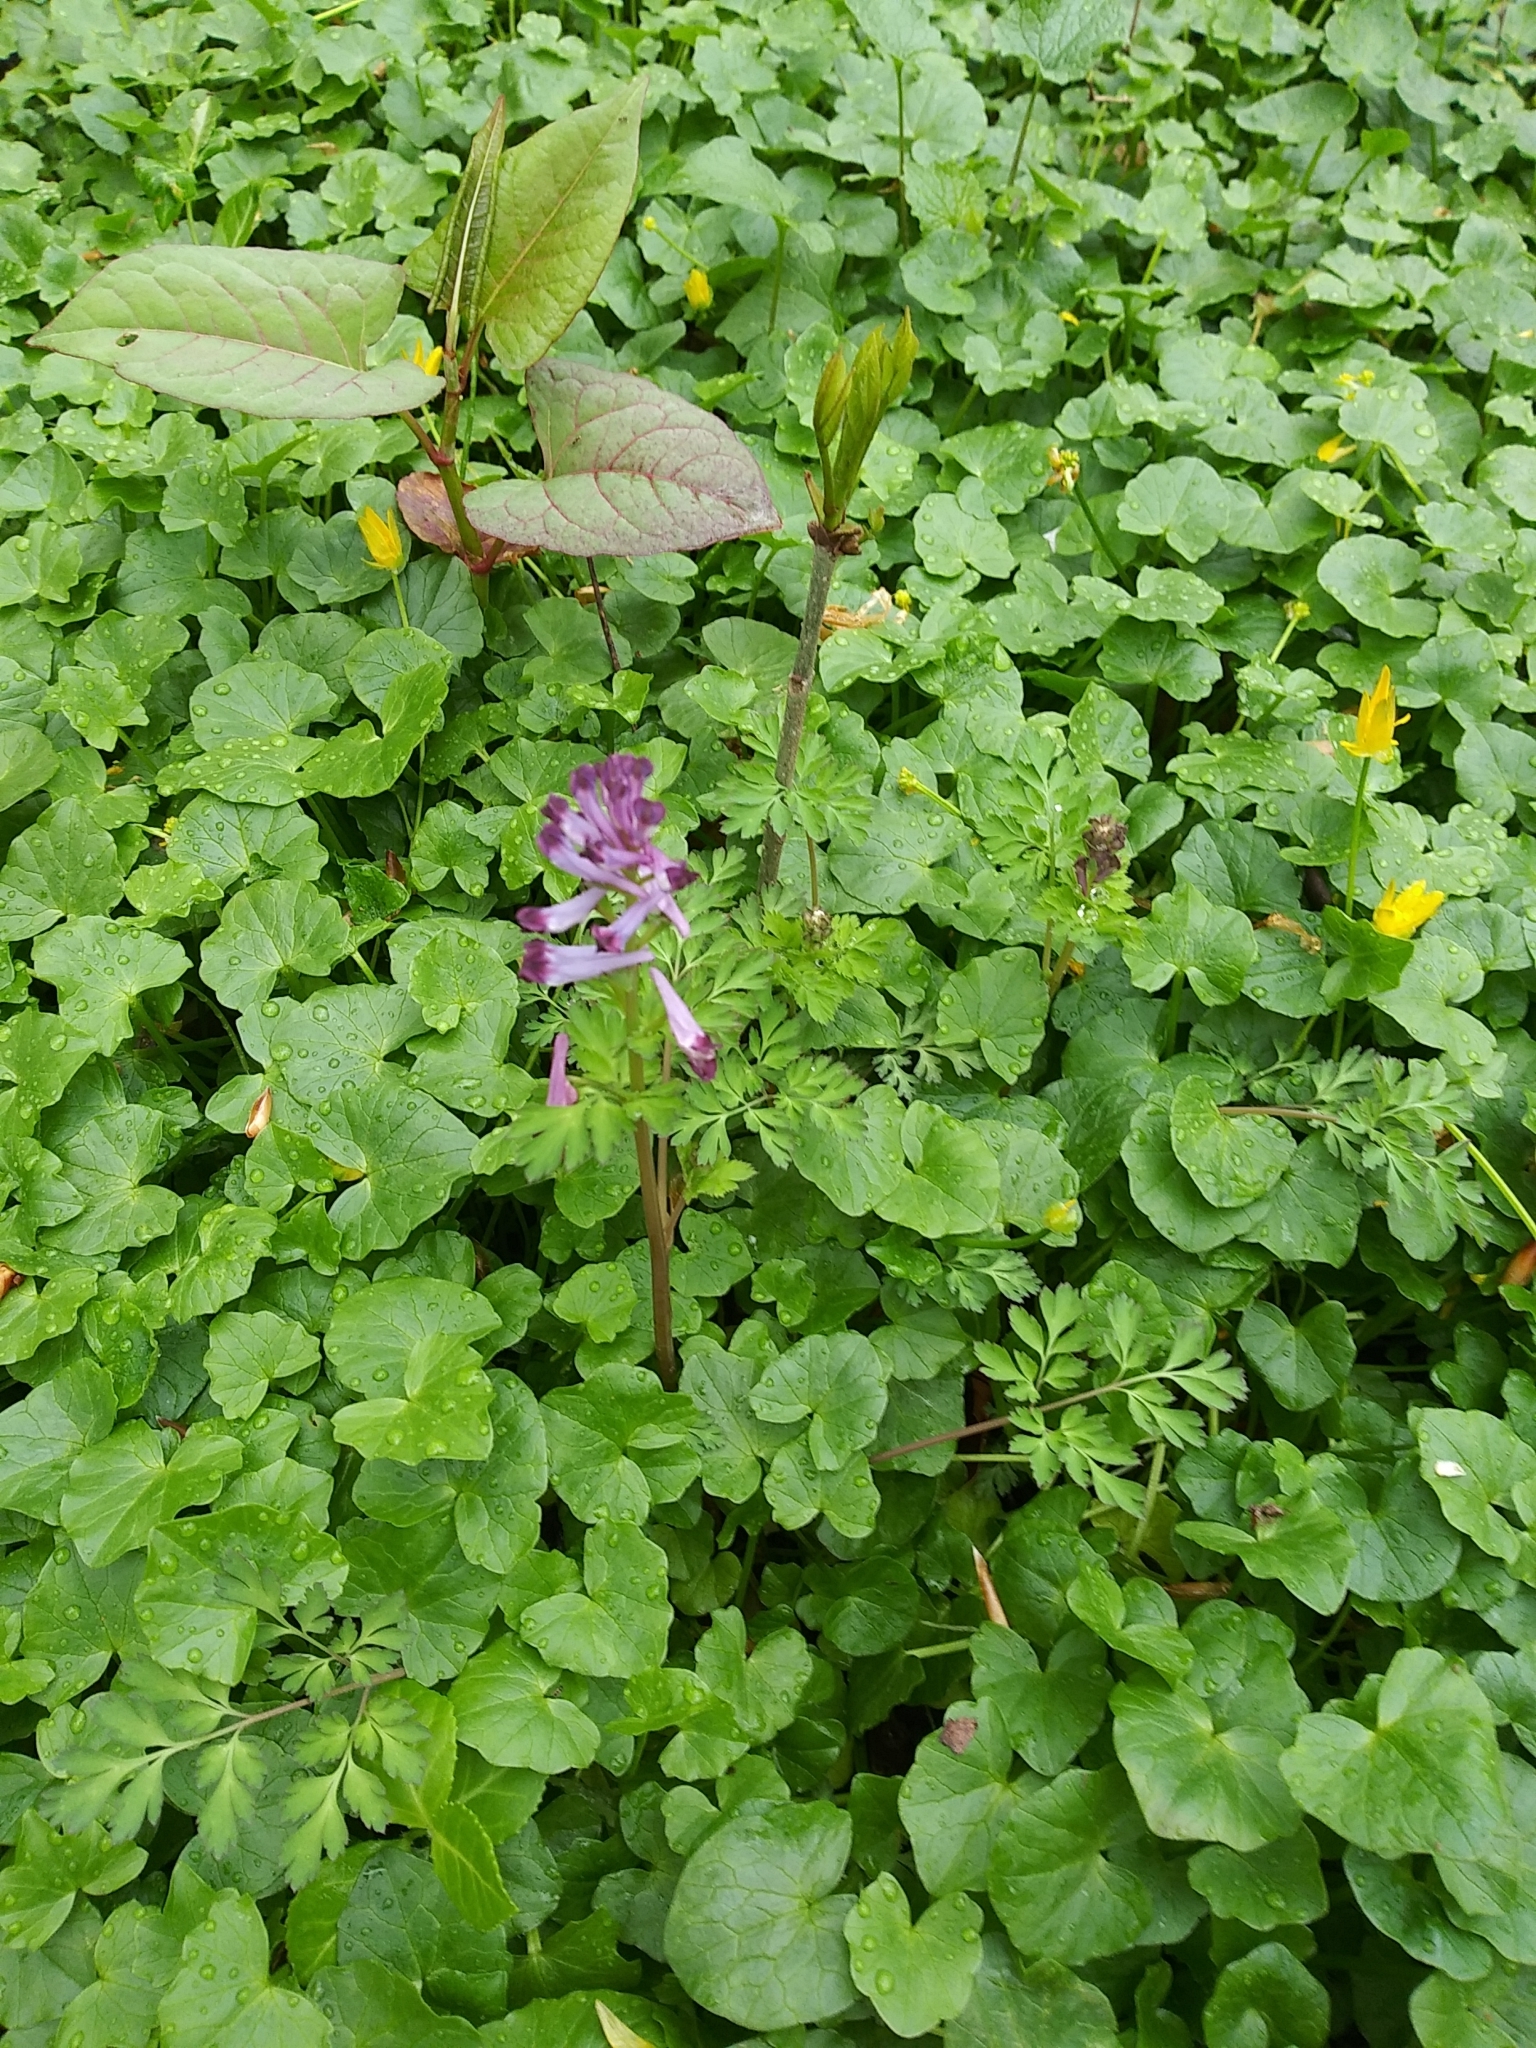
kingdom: Plantae
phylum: Tracheophyta
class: Magnoliopsida
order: Ranunculales
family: Papaveraceae
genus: Corydalis
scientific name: Corydalis incisa
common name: Incised fumewort
